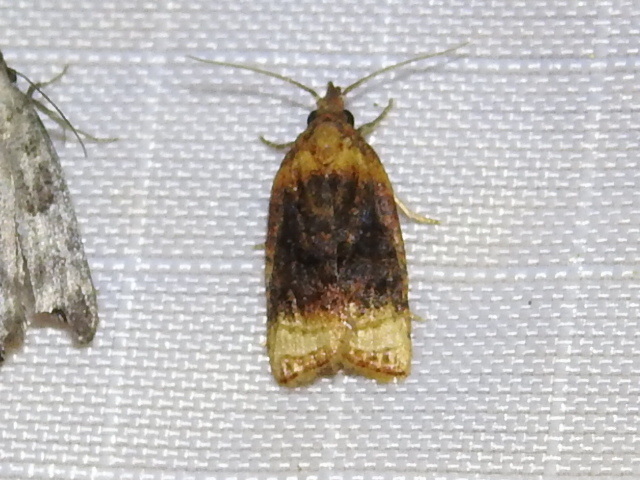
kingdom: Animalia
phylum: Arthropoda
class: Insecta
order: Lepidoptera
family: Tortricidae
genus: Platynota
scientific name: Platynota flavedana
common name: Black-shaded platynota moth
